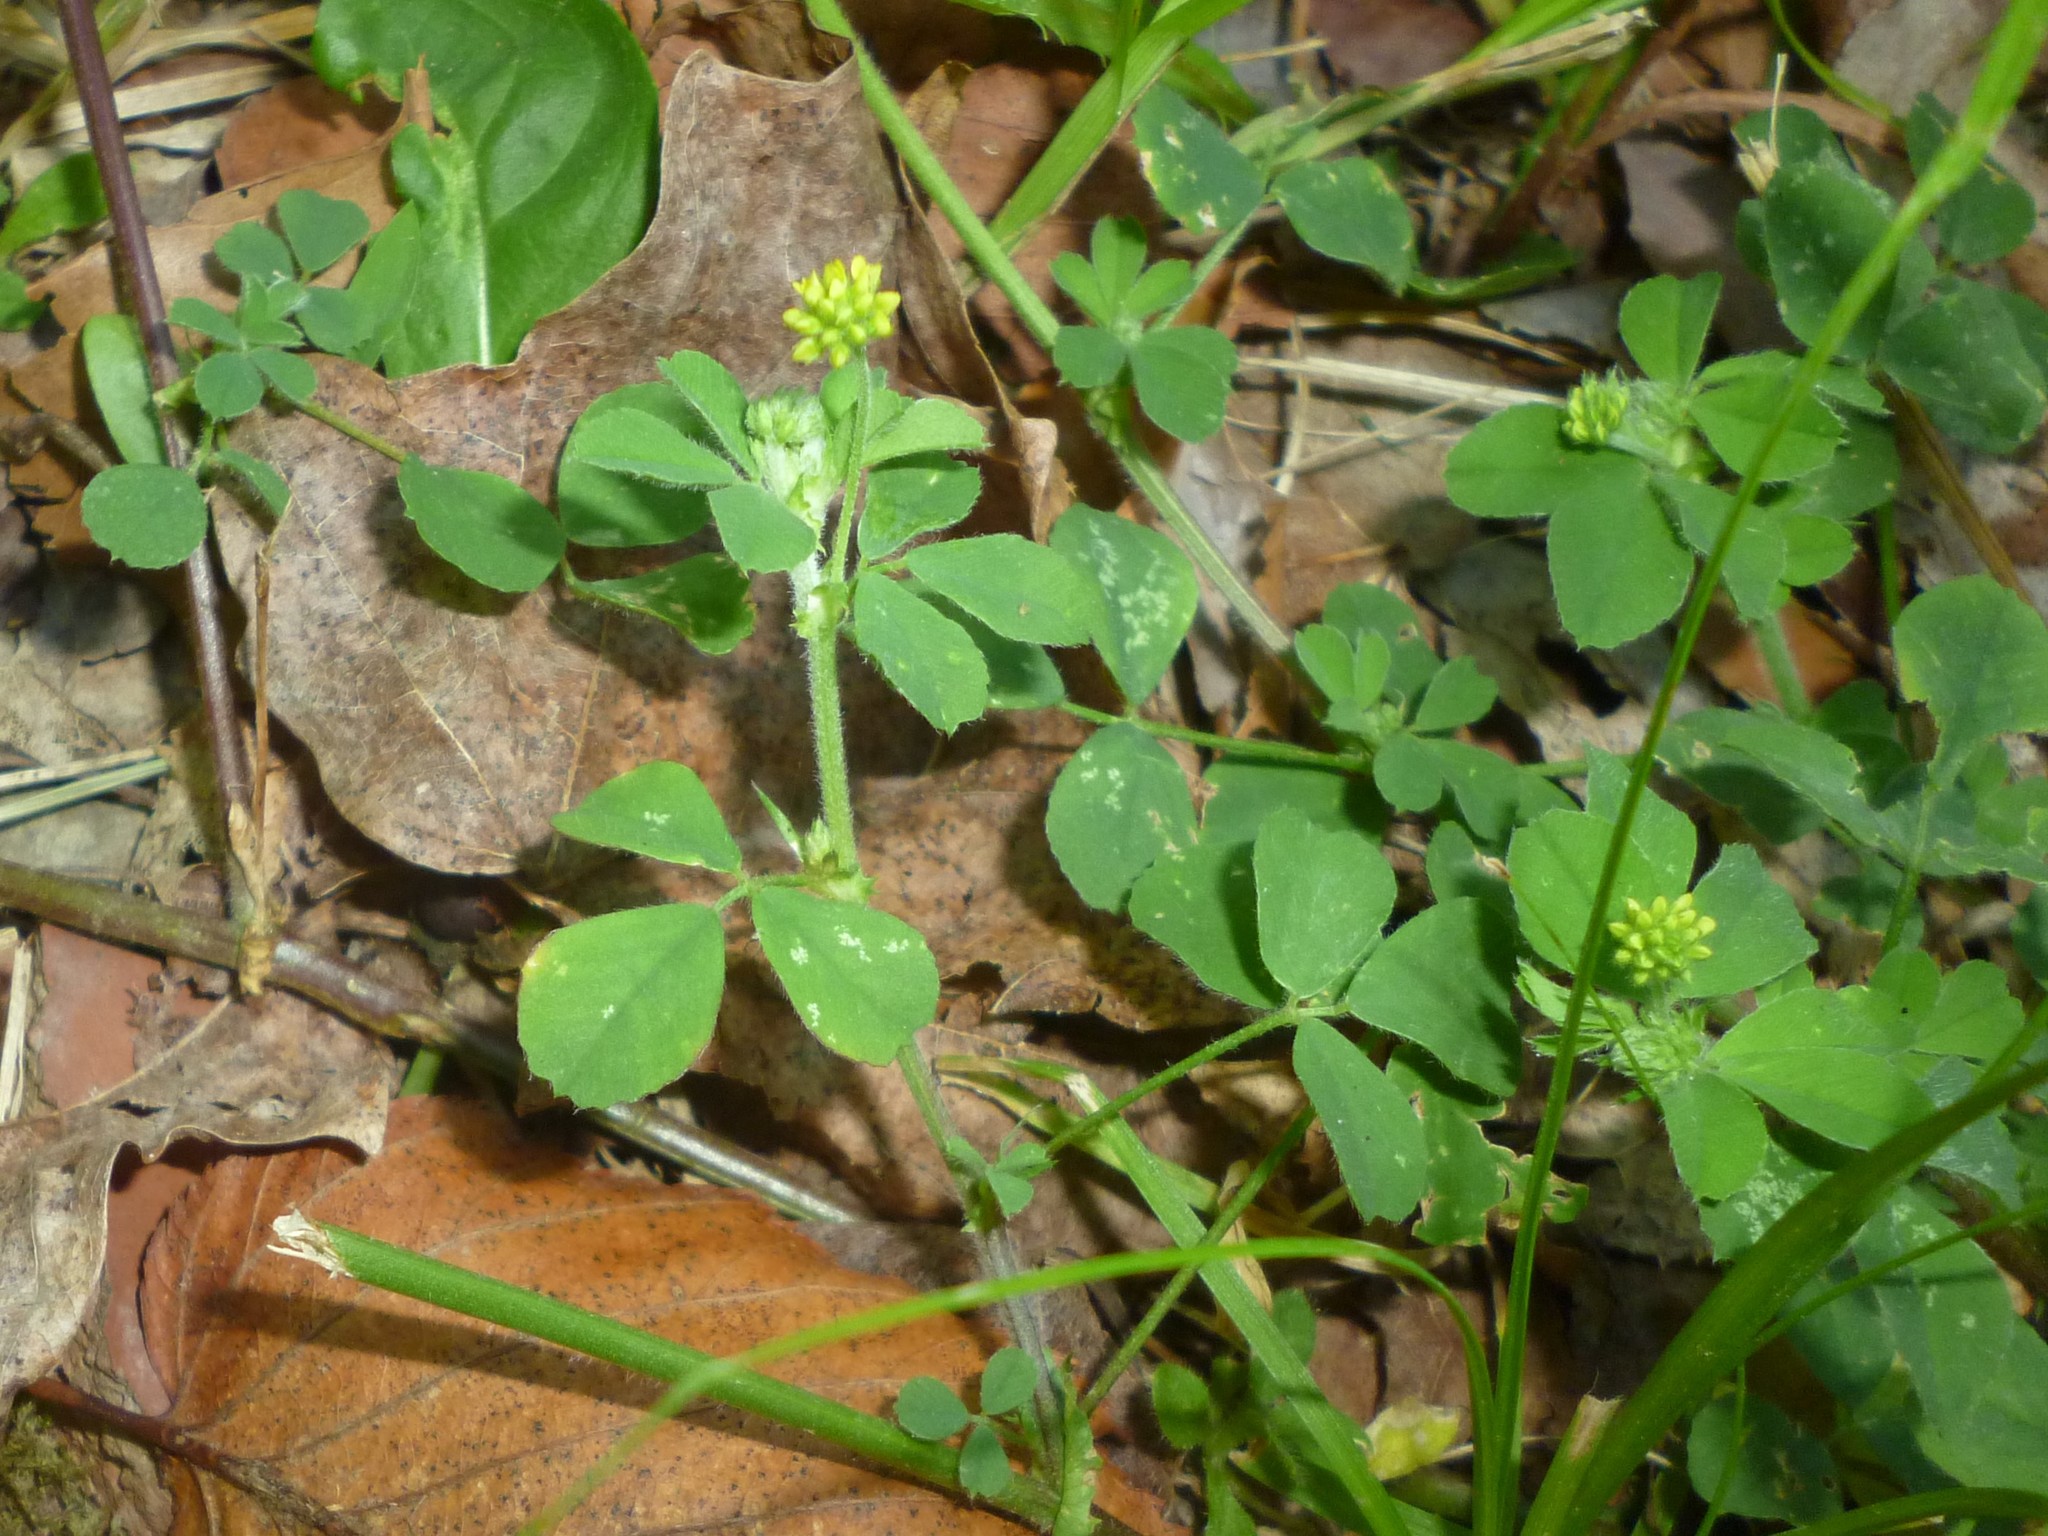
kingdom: Plantae
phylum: Tracheophyta
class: Magnoliopsida
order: Fabales
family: Fabaceae
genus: Medicago
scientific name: Medicago lupulina
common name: Black medick
